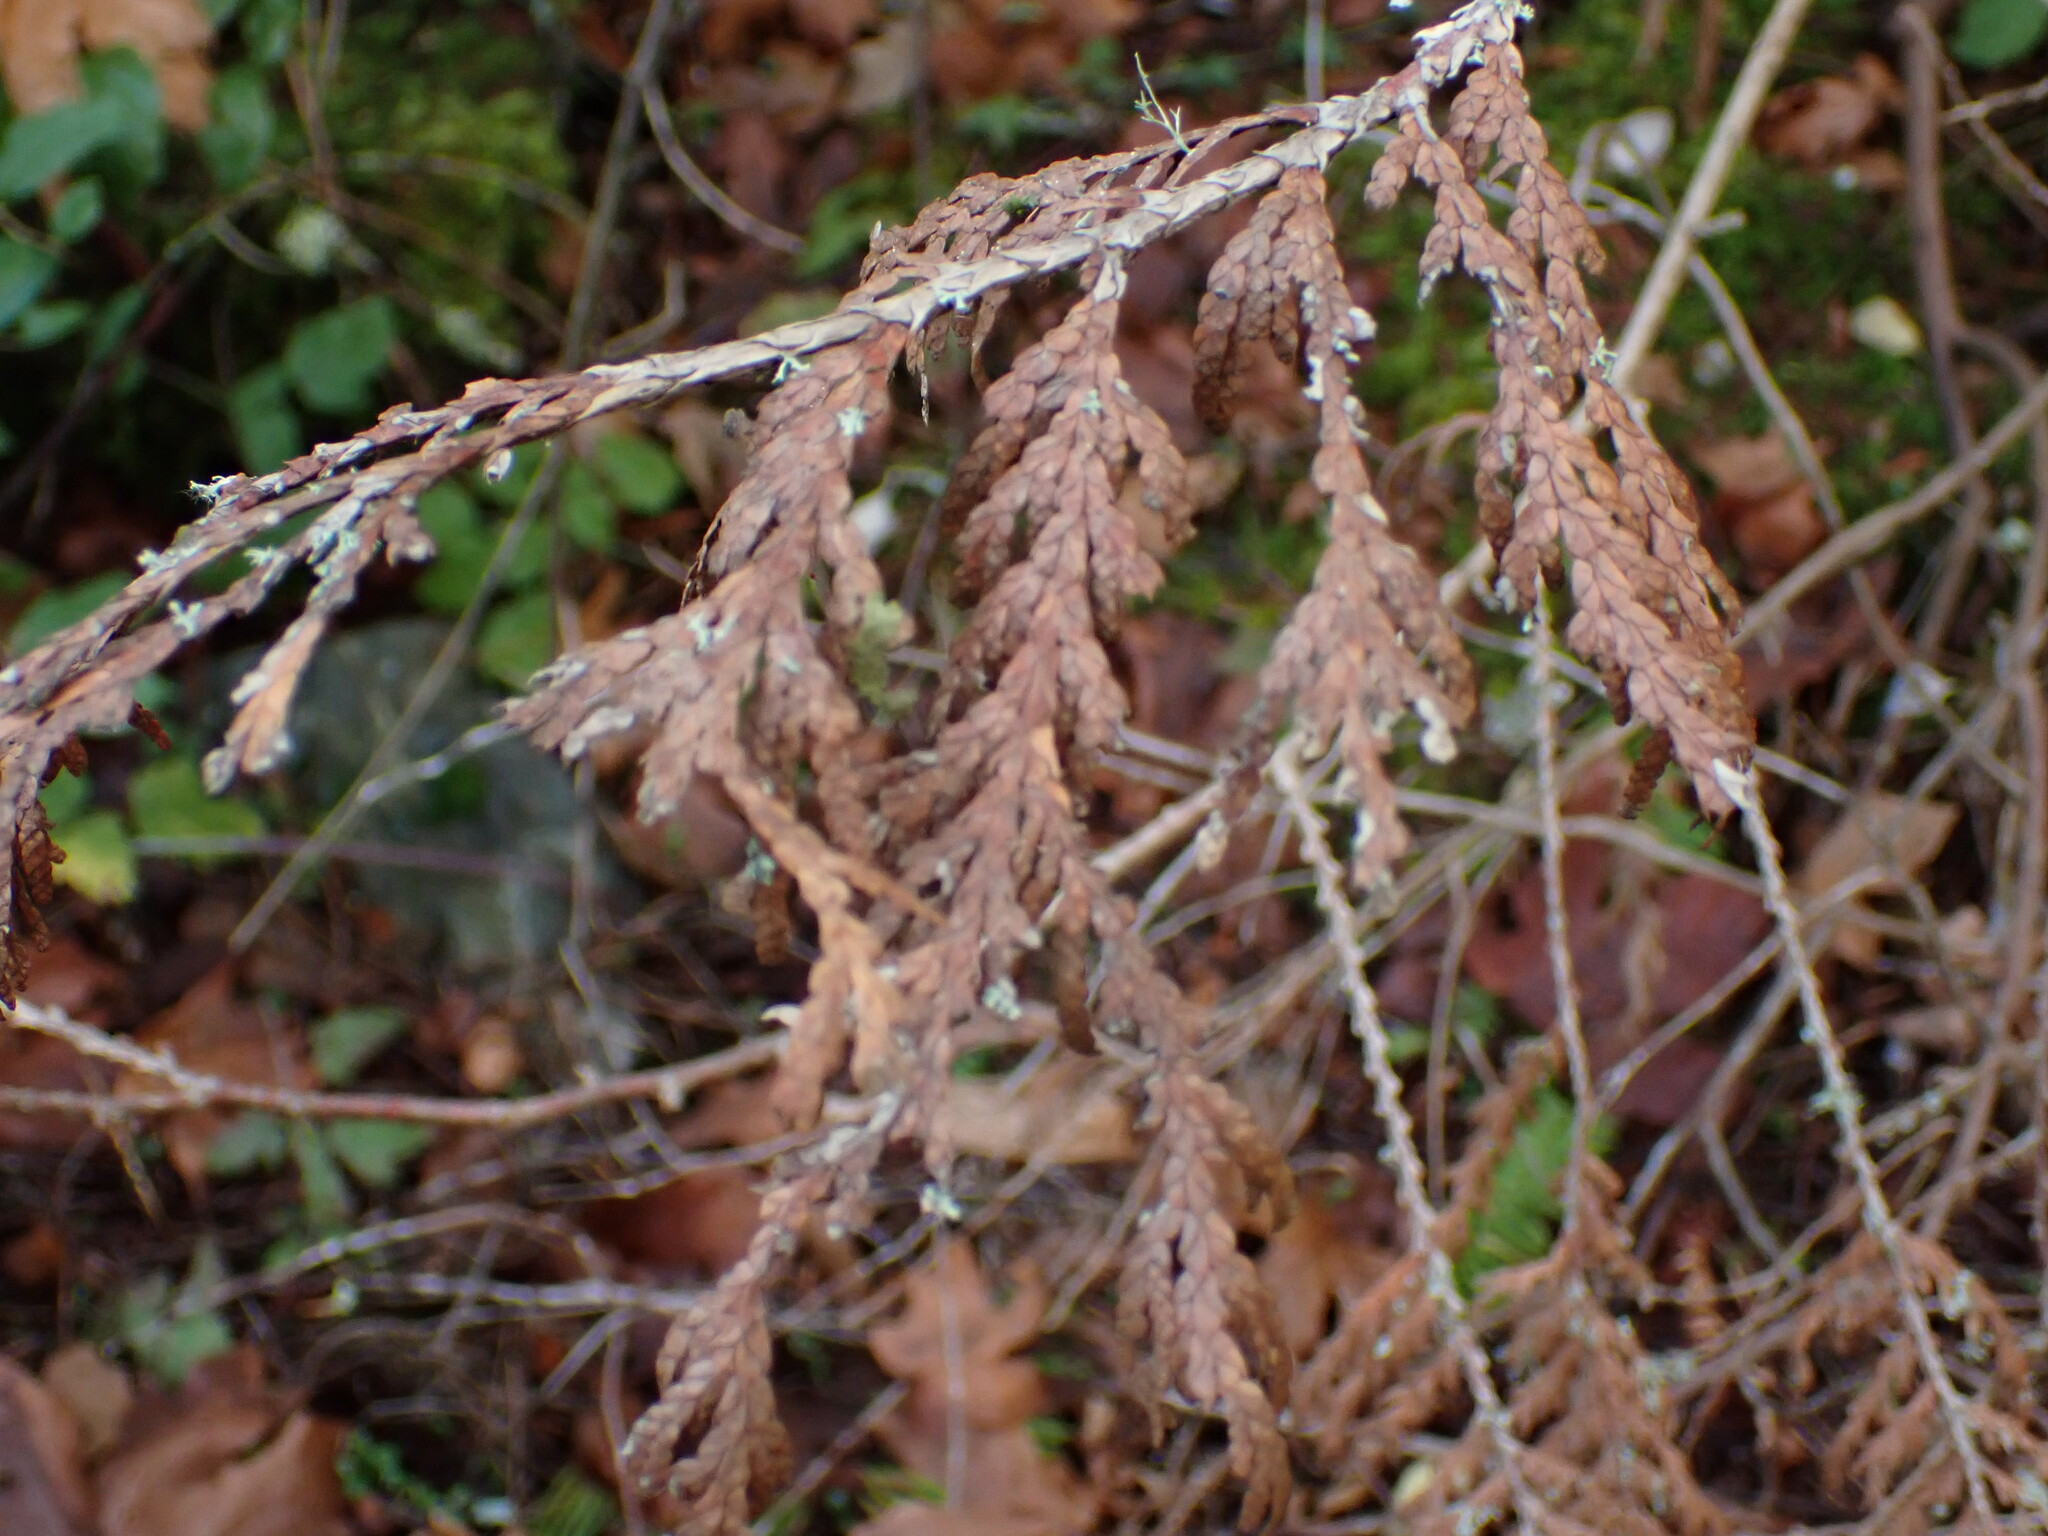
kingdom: Plantae
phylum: Tracheophyta
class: Pinopsida
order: Pinales
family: Cupressaceae
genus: Thuja
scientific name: Thuja plicata
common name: Western red-cedar
